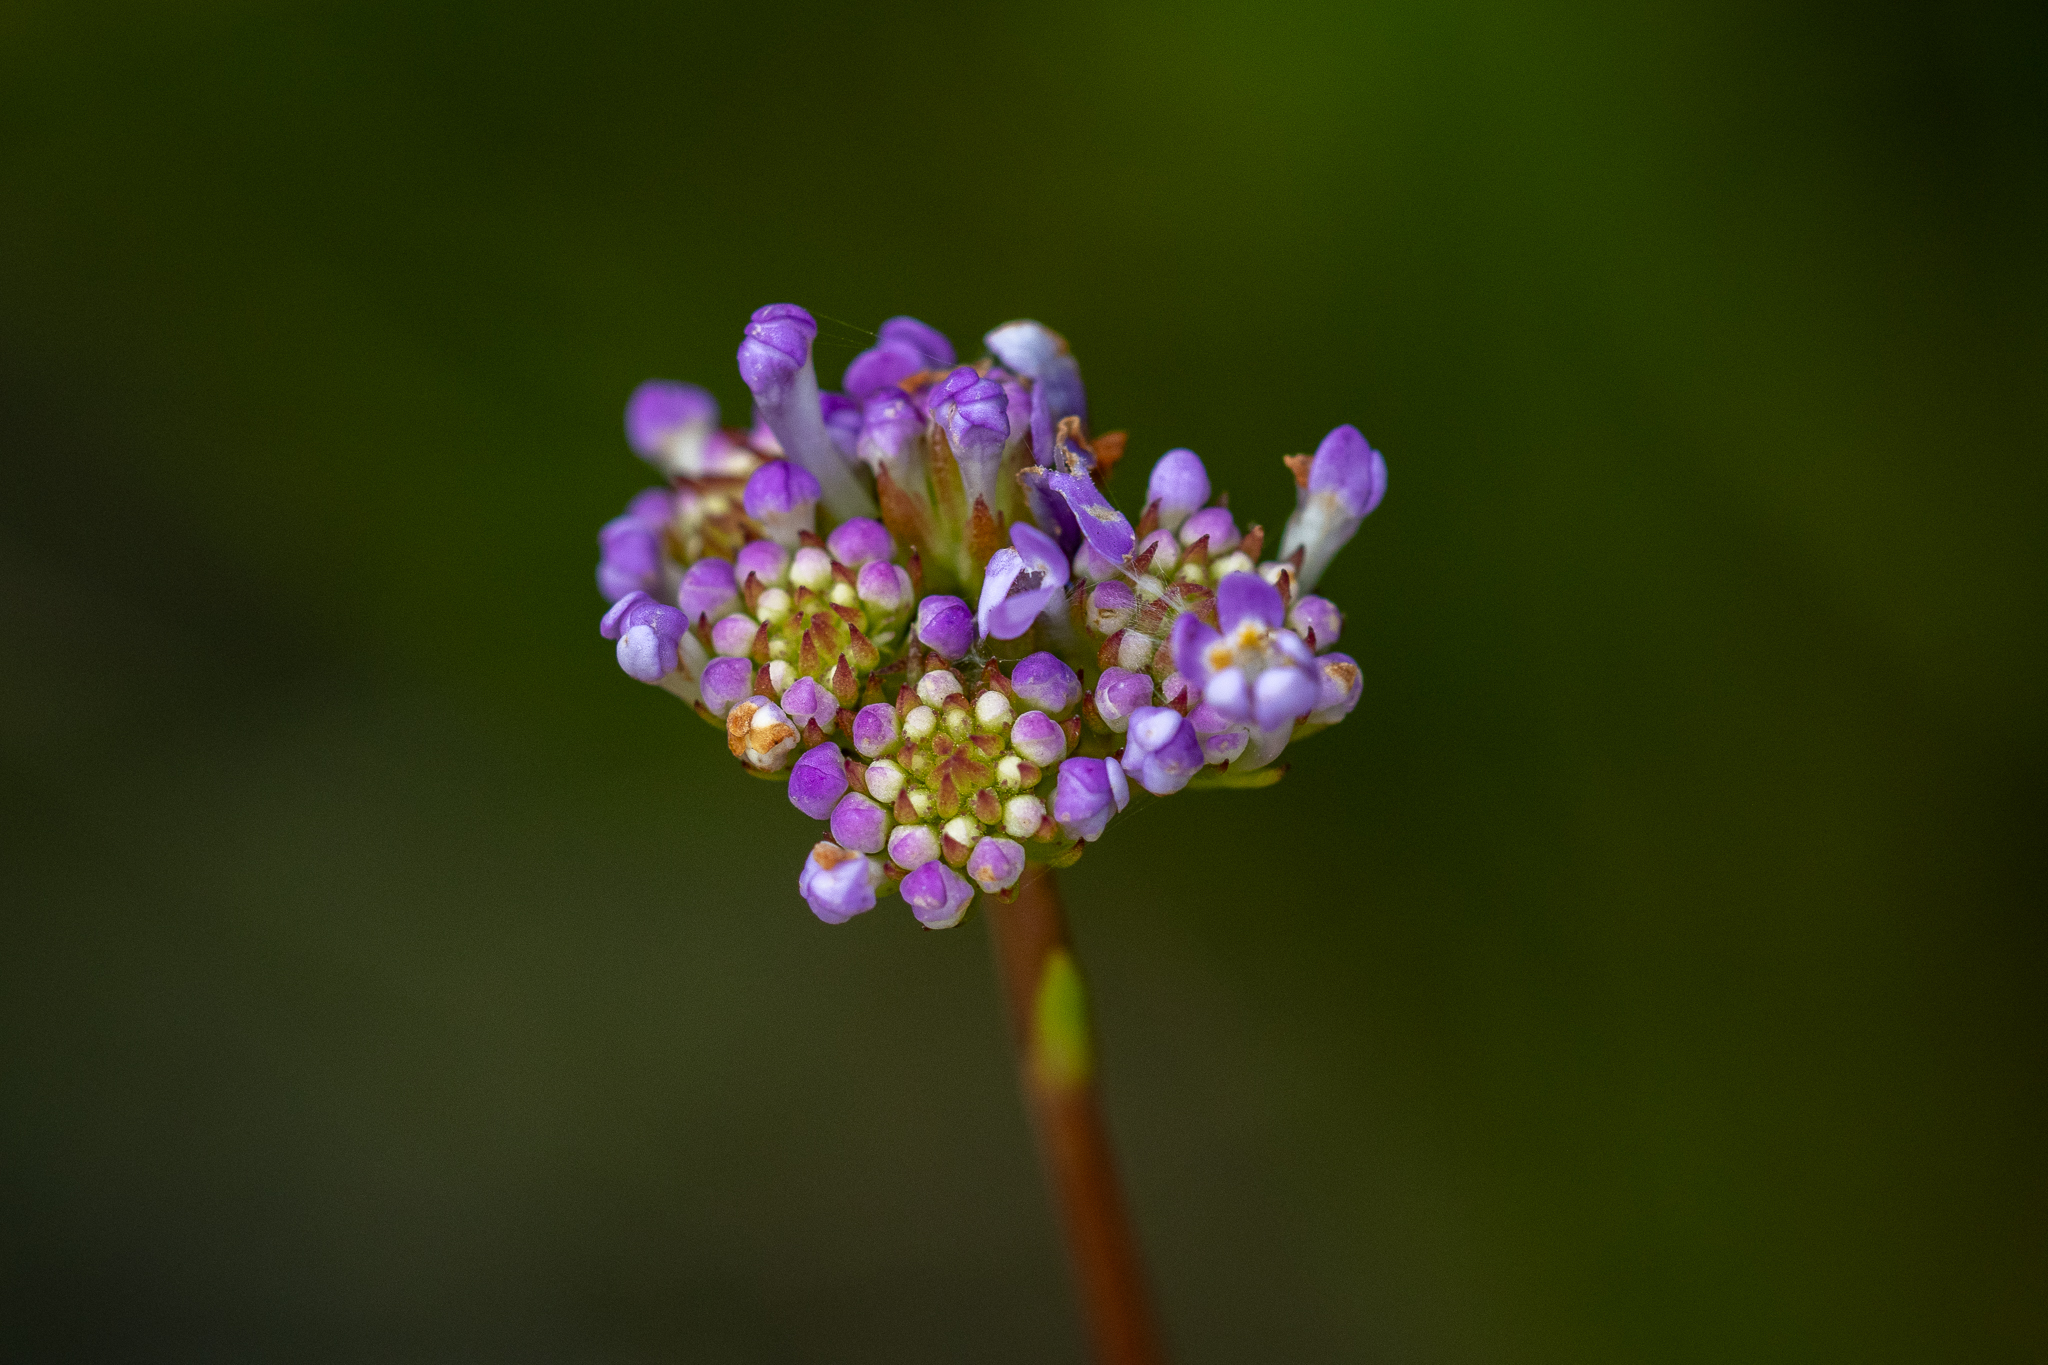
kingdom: Plantae
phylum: Tracheophyta
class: Magnoliopsida
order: Lamiales
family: Scrophulariaceae
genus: Pseudoselago
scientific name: Pseudoselago verbenacea
